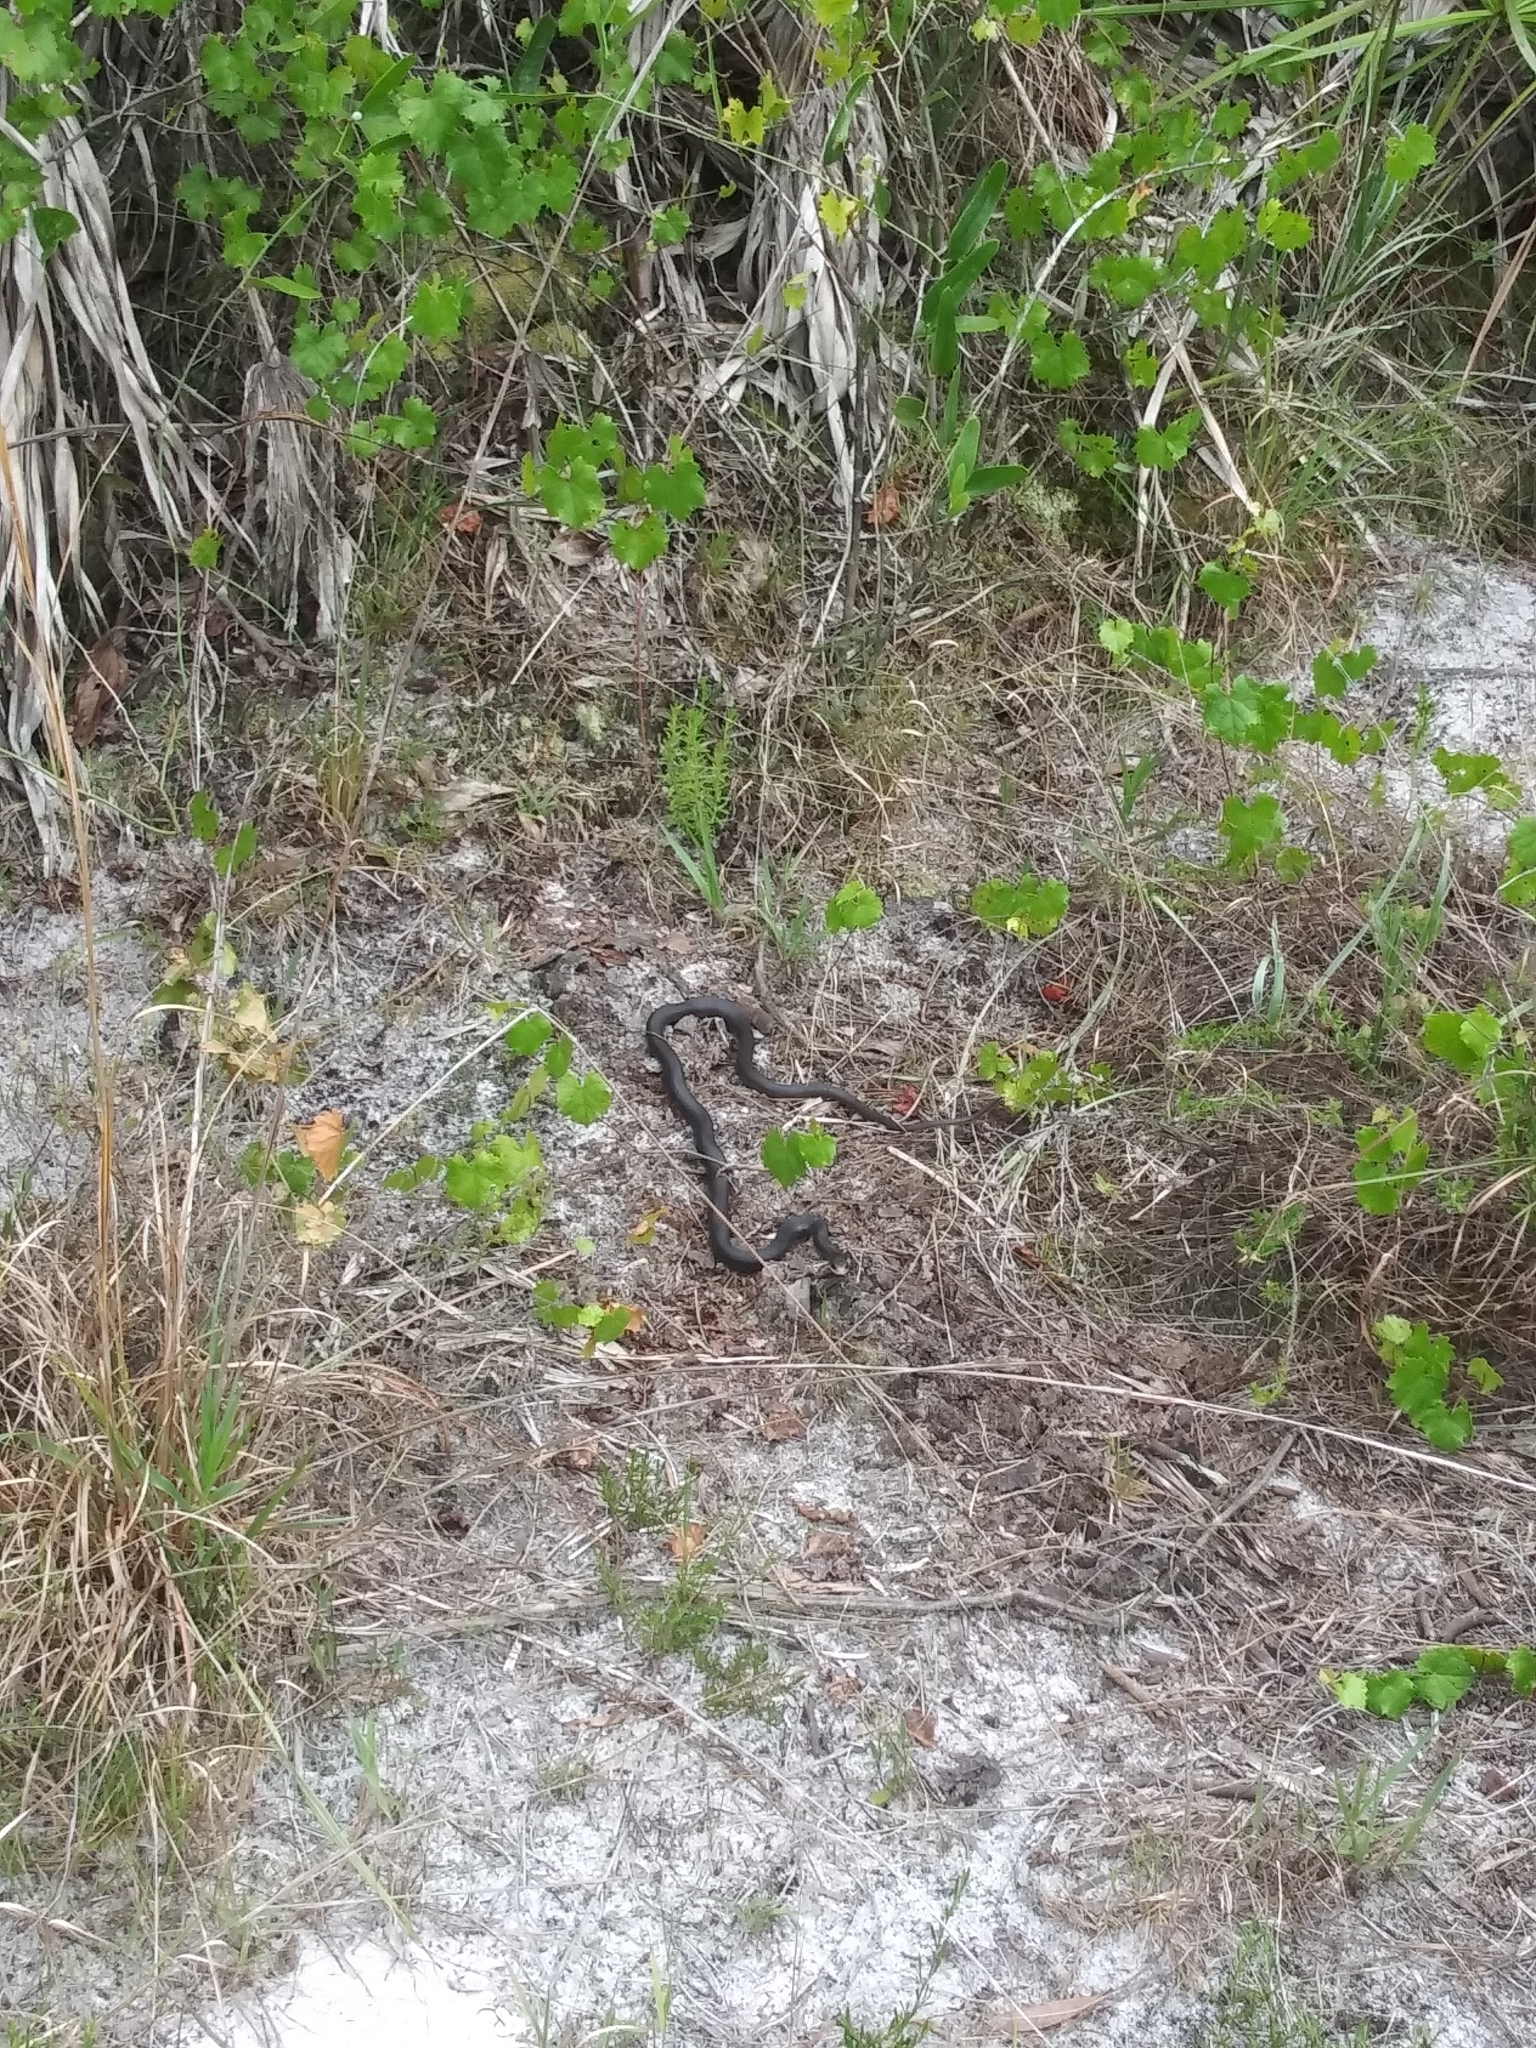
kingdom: Animalia
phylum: Chordata
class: Squamata
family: Colubridae
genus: Coluber
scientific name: Coluber constrictor
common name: Eastern racer
